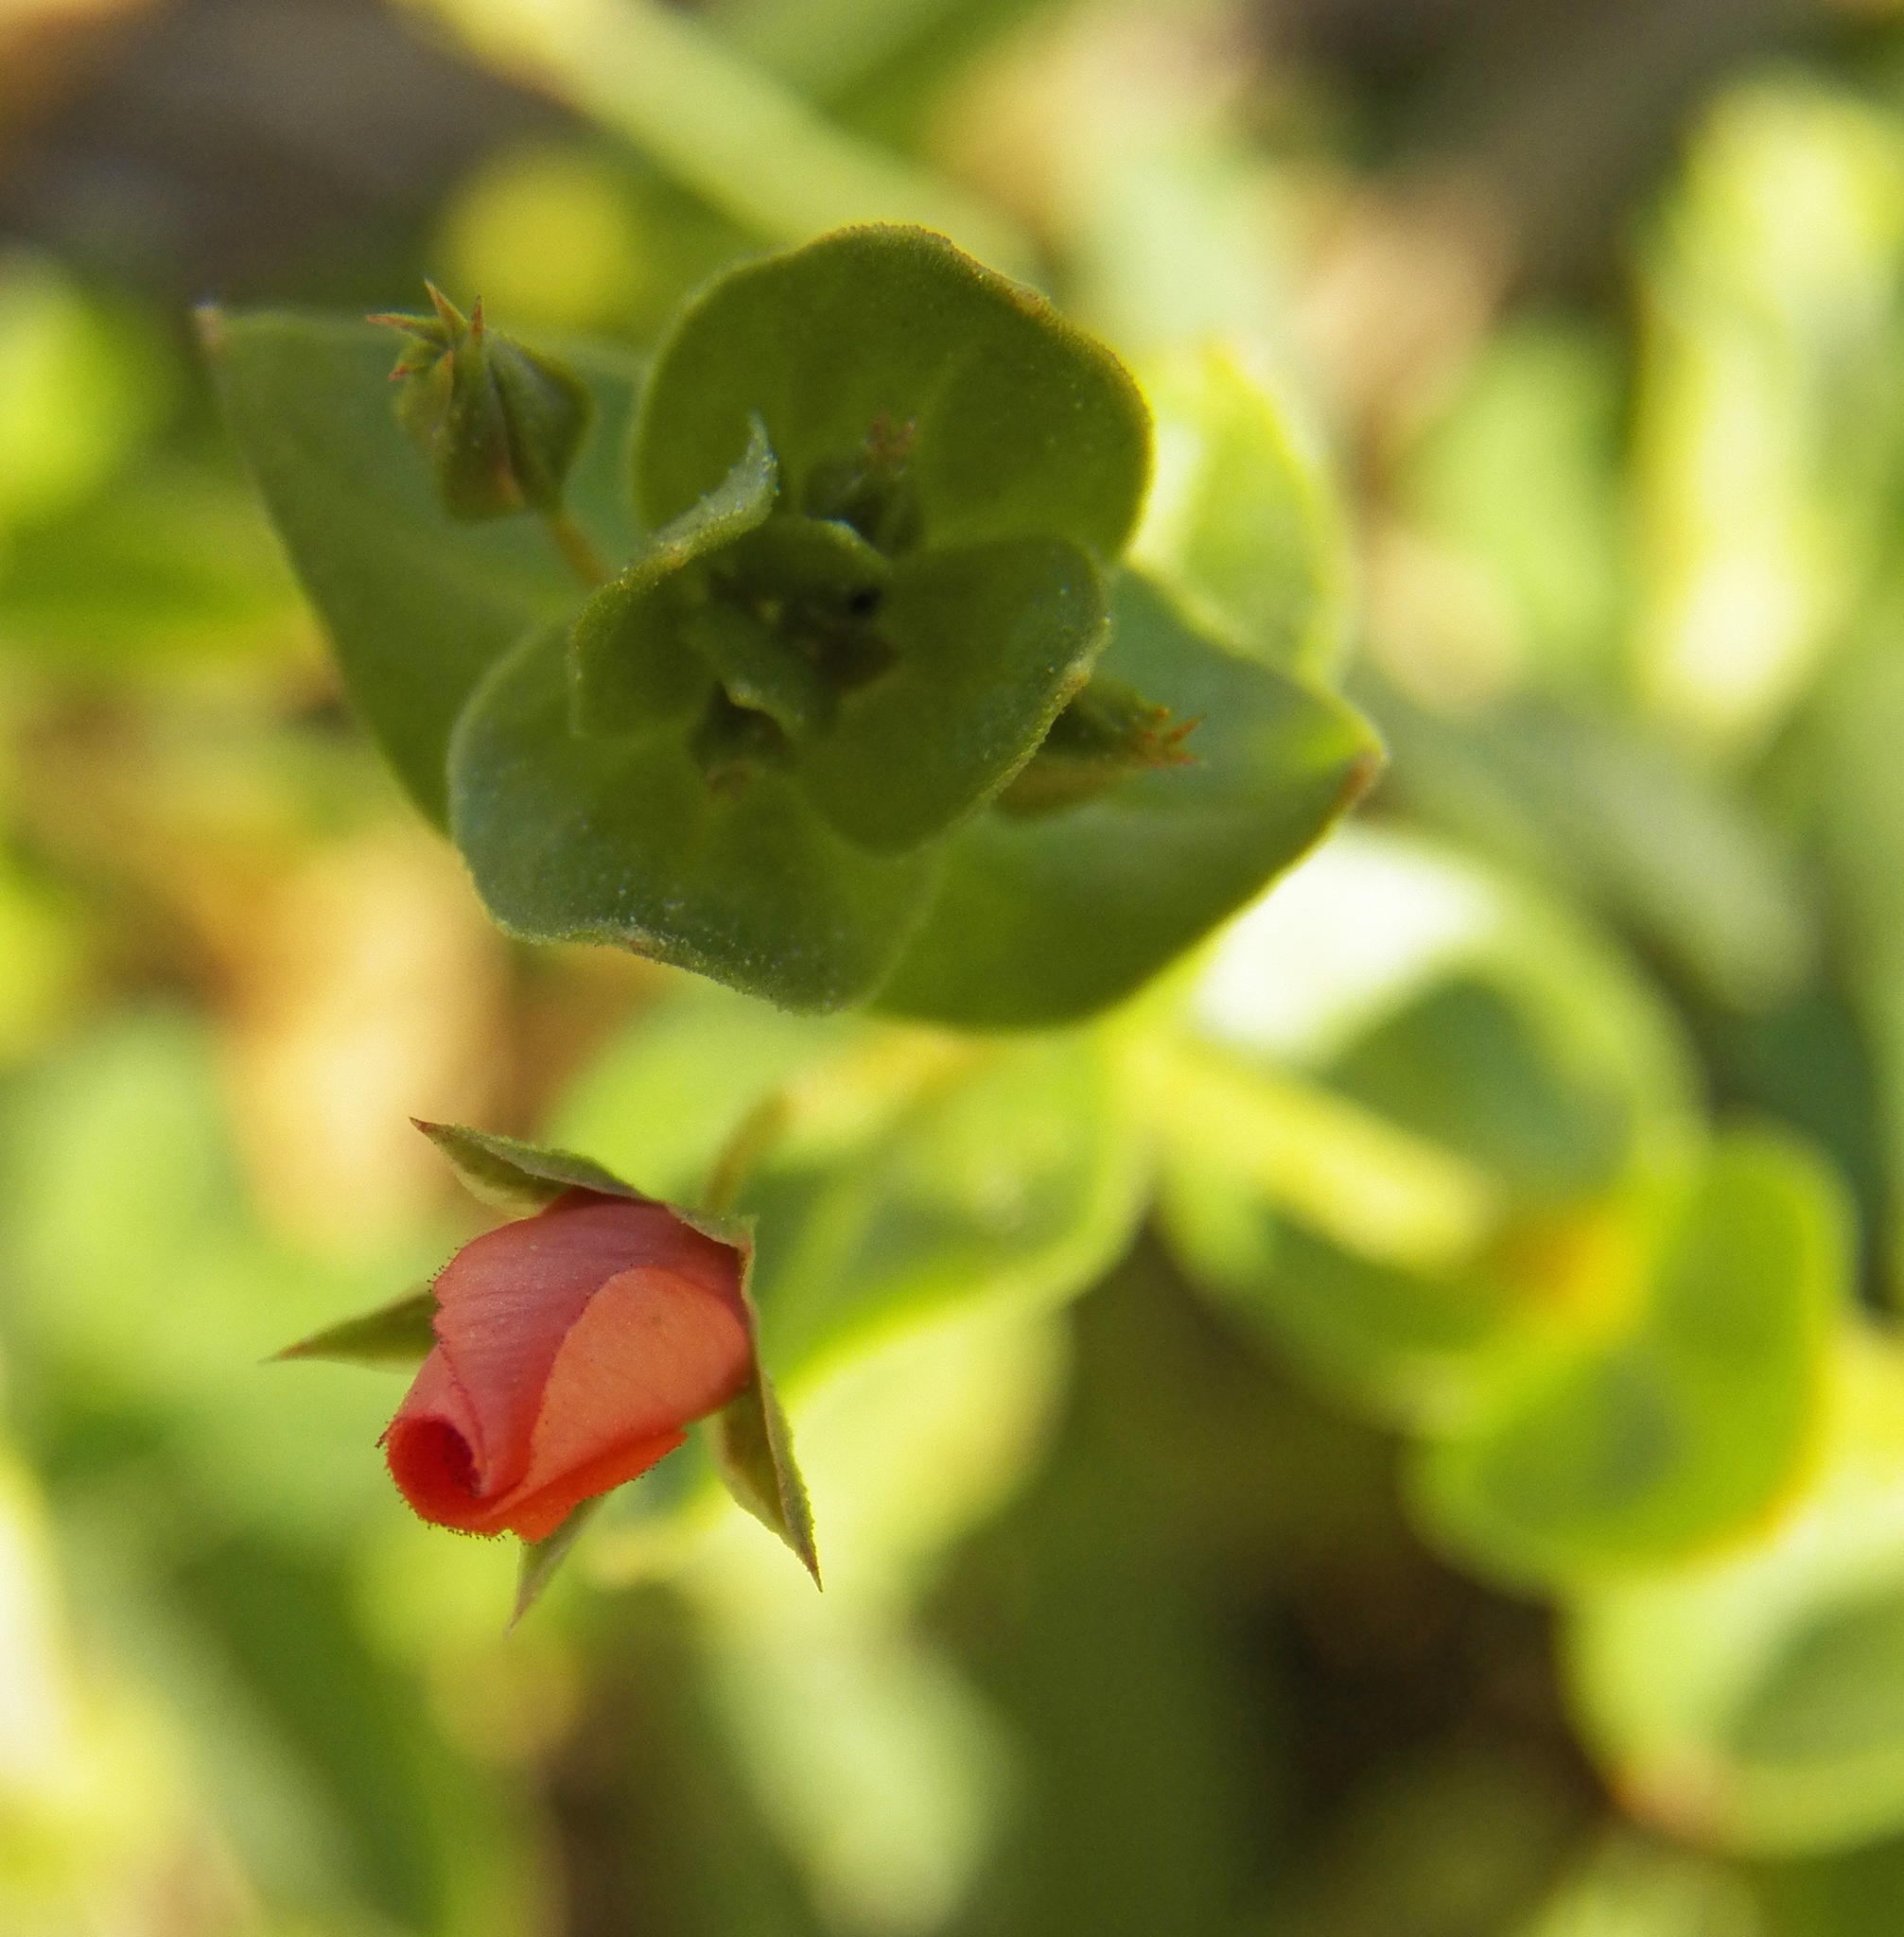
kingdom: Plantae
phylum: Tracheophyta
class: Magnoliopsida
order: Ericales
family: Primulaceae
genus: Lysimachia
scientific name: Lysimachia arvensis
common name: Scarlet pimpernel
